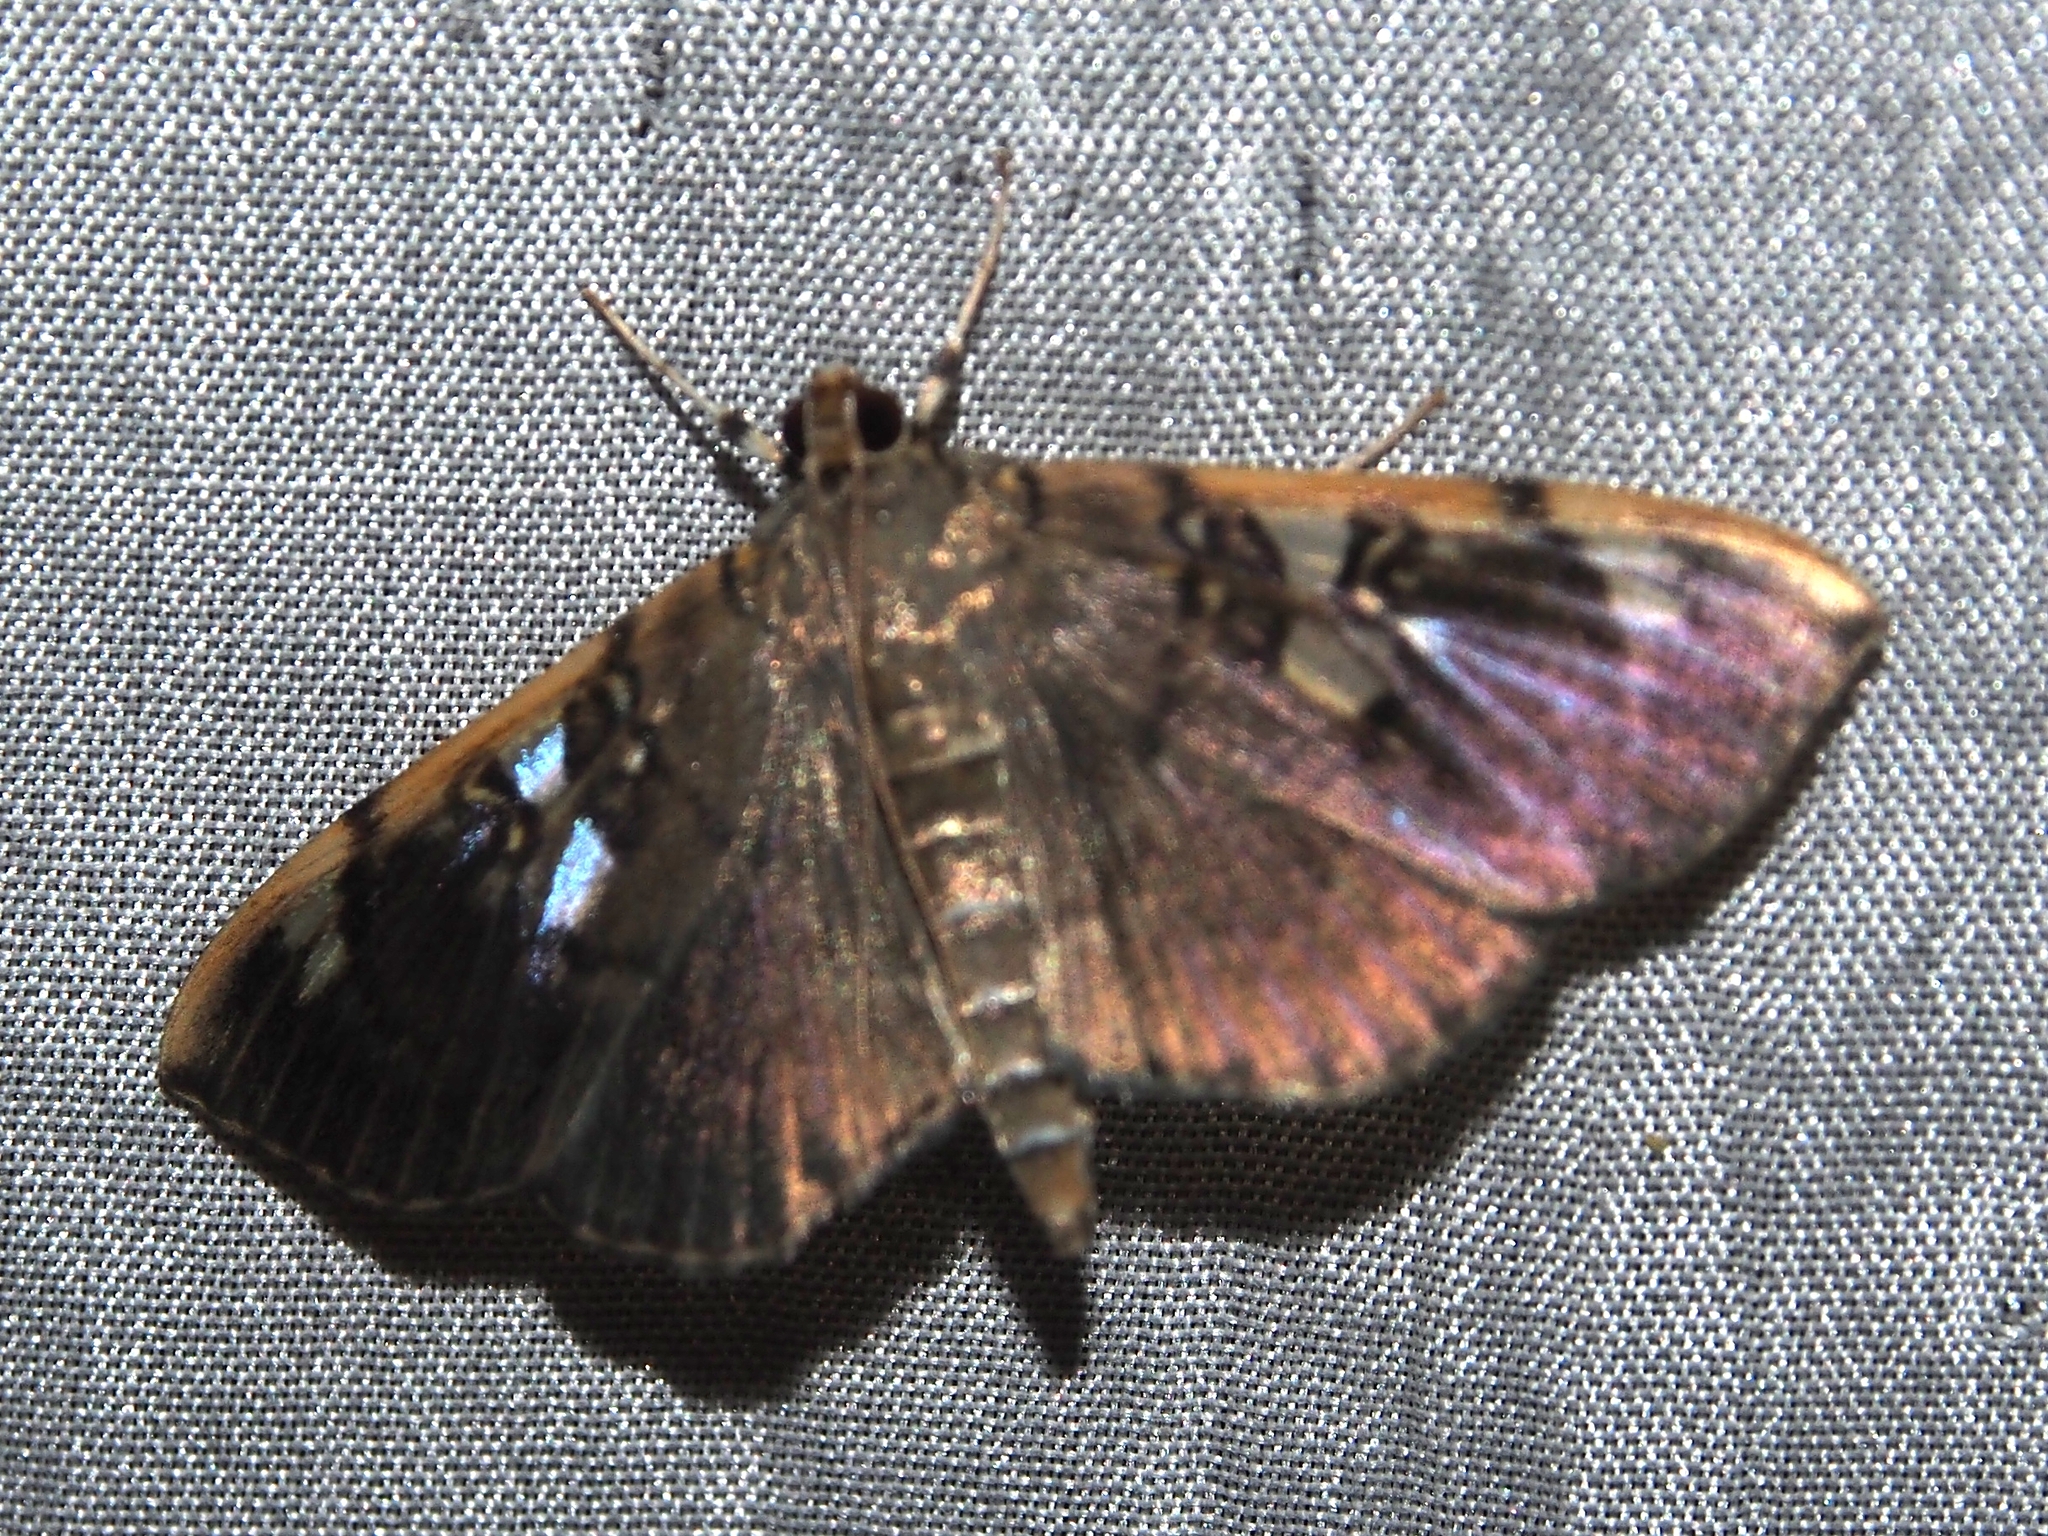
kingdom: Animalia
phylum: Arthropoda
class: Insecta
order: Lepidoptera
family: Crambidae
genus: Pantographa
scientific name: Pantographa
